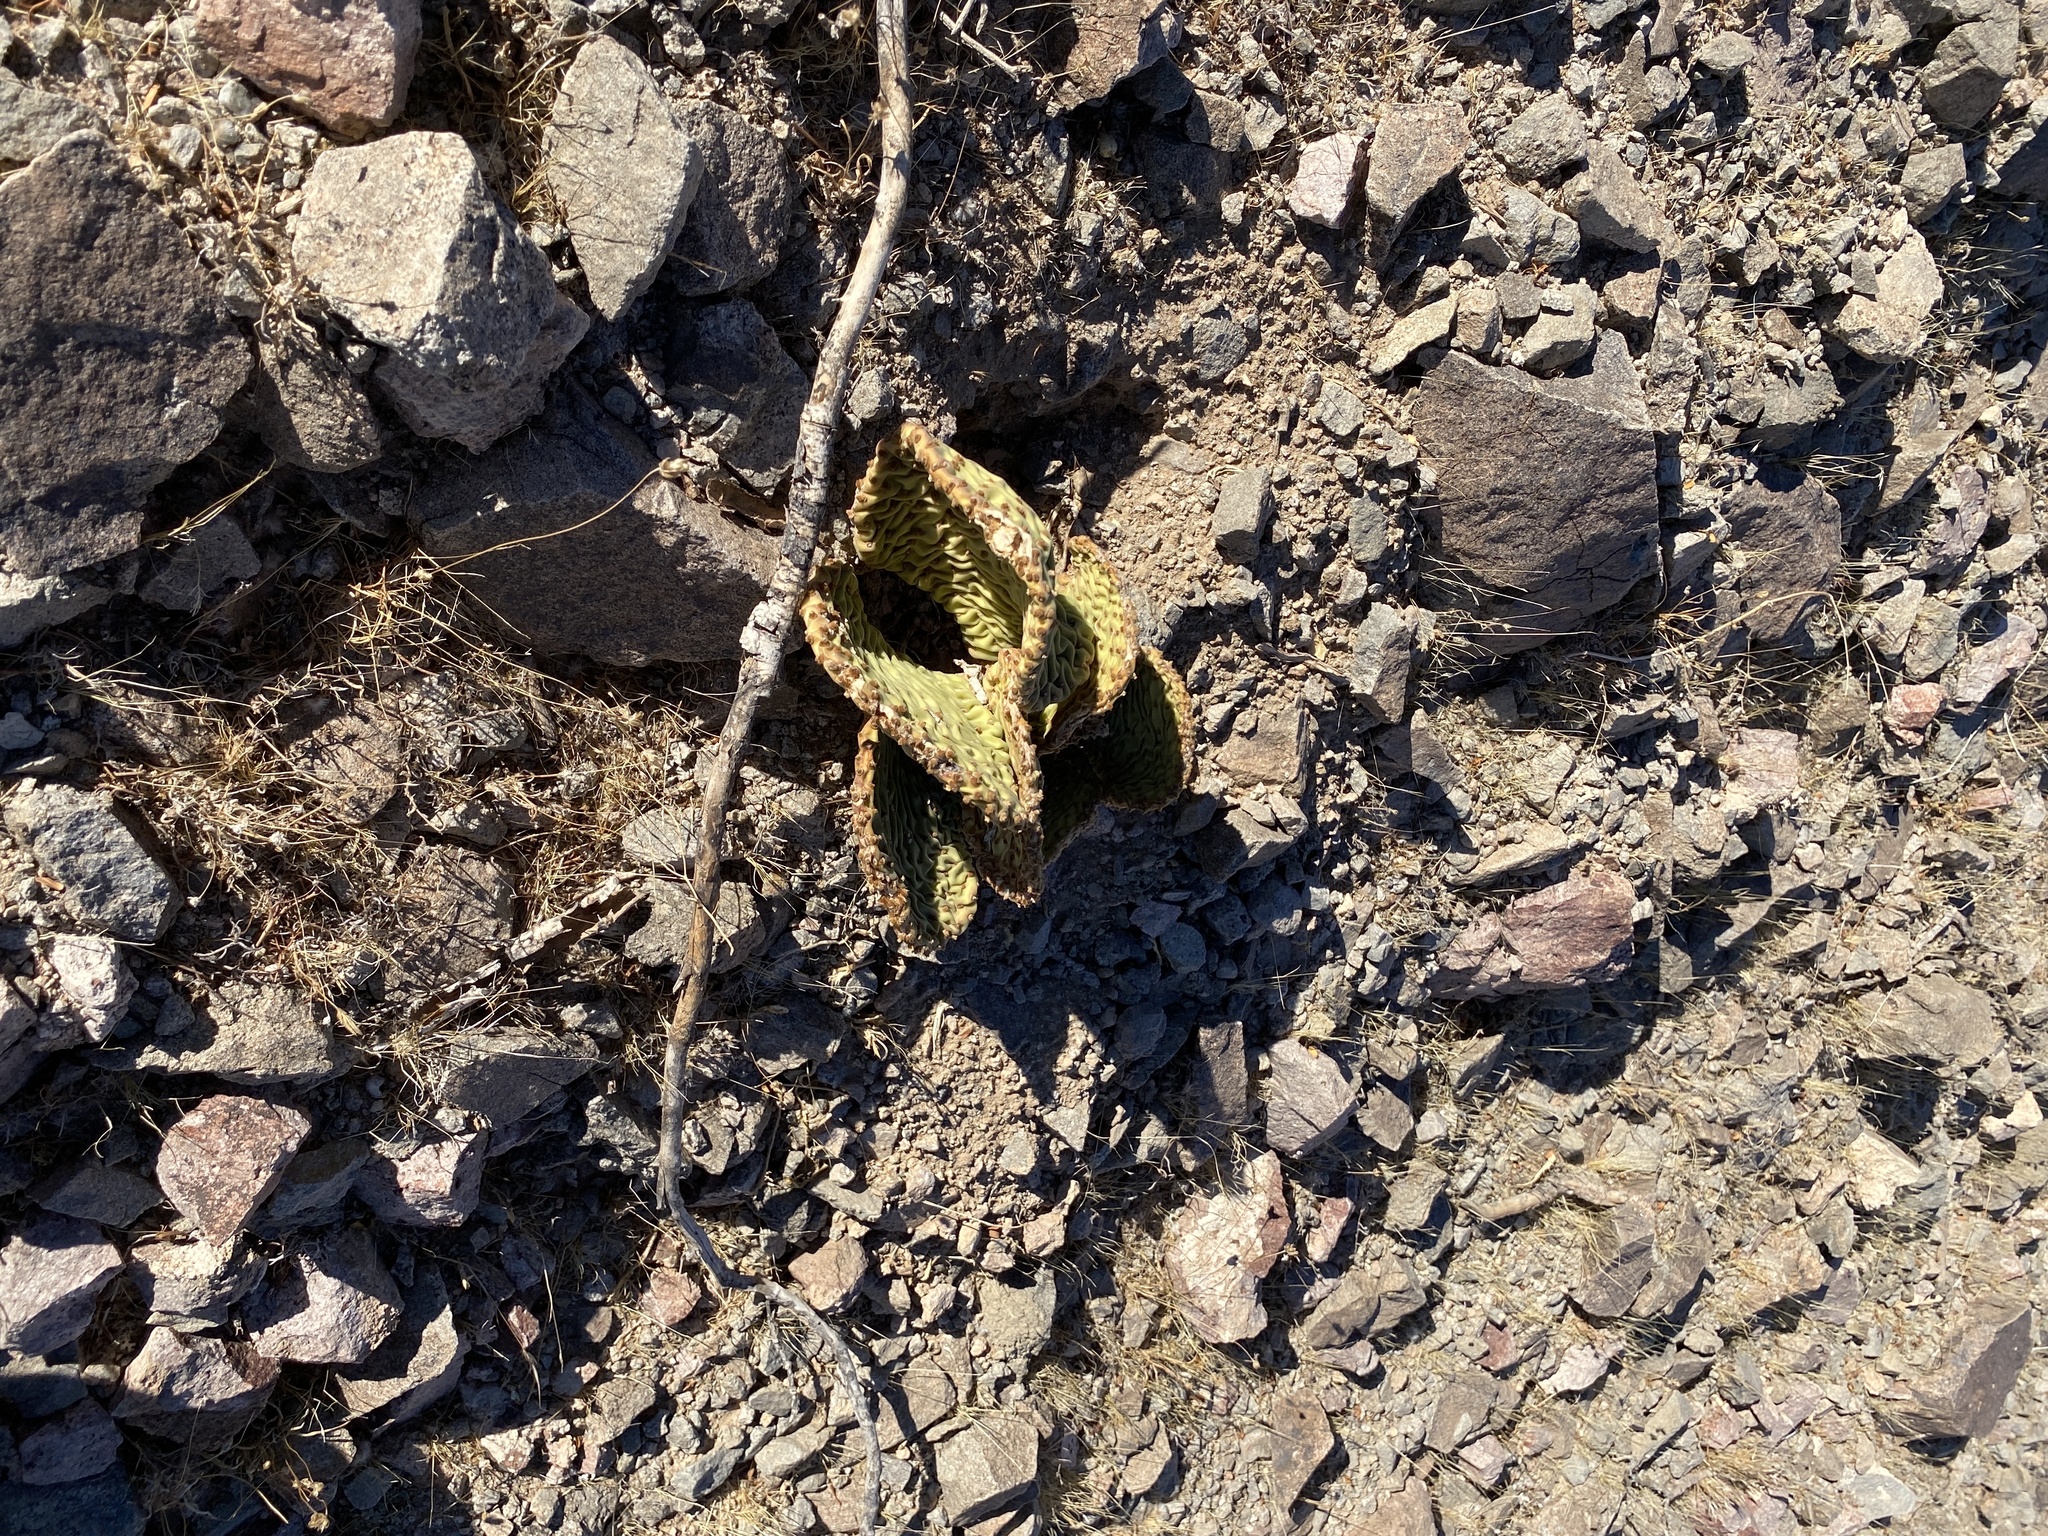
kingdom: Plantae
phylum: Tracheophyta
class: Magnoliopsida
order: Caryophyllales
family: Cactaceae
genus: Opuntia
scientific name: Opuntia basilaris
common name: Beavertail prickly-pear
